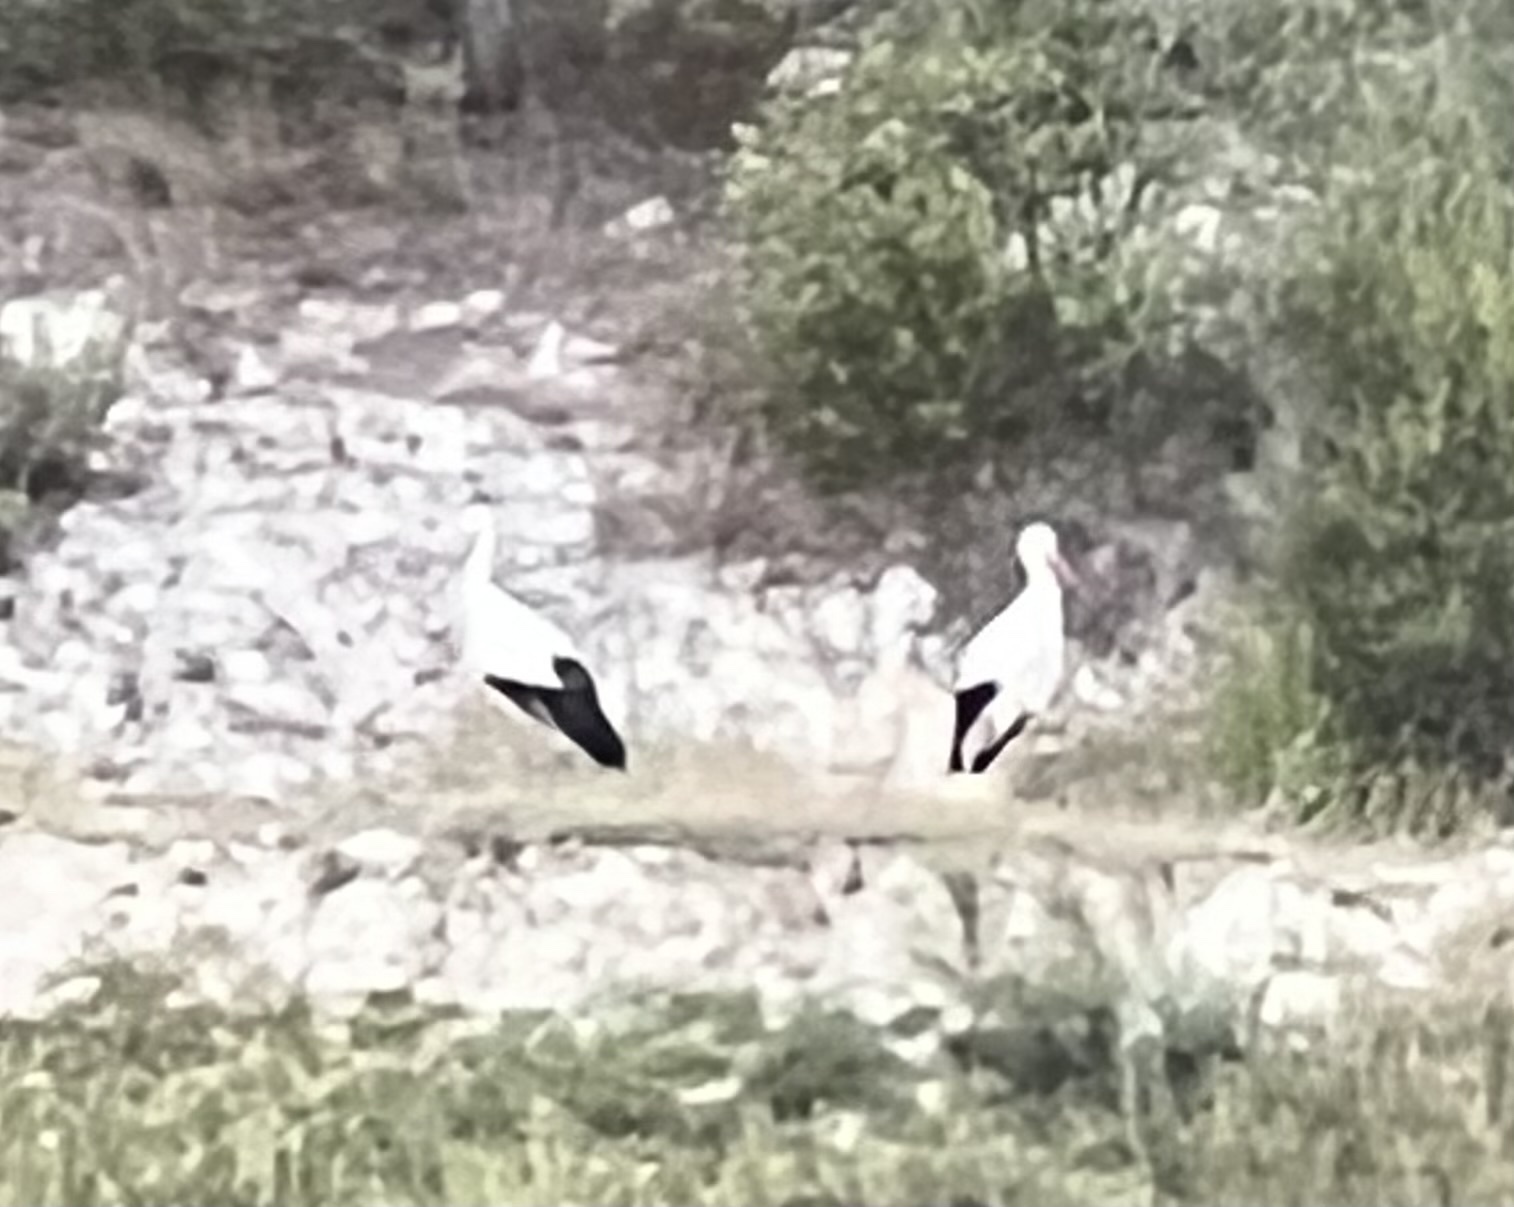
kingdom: Animalia
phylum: Chordata
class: Aves
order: Ciconiiformes
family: Ciconiidae
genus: Ciconia
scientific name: Ciconia ciconia
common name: White stork
